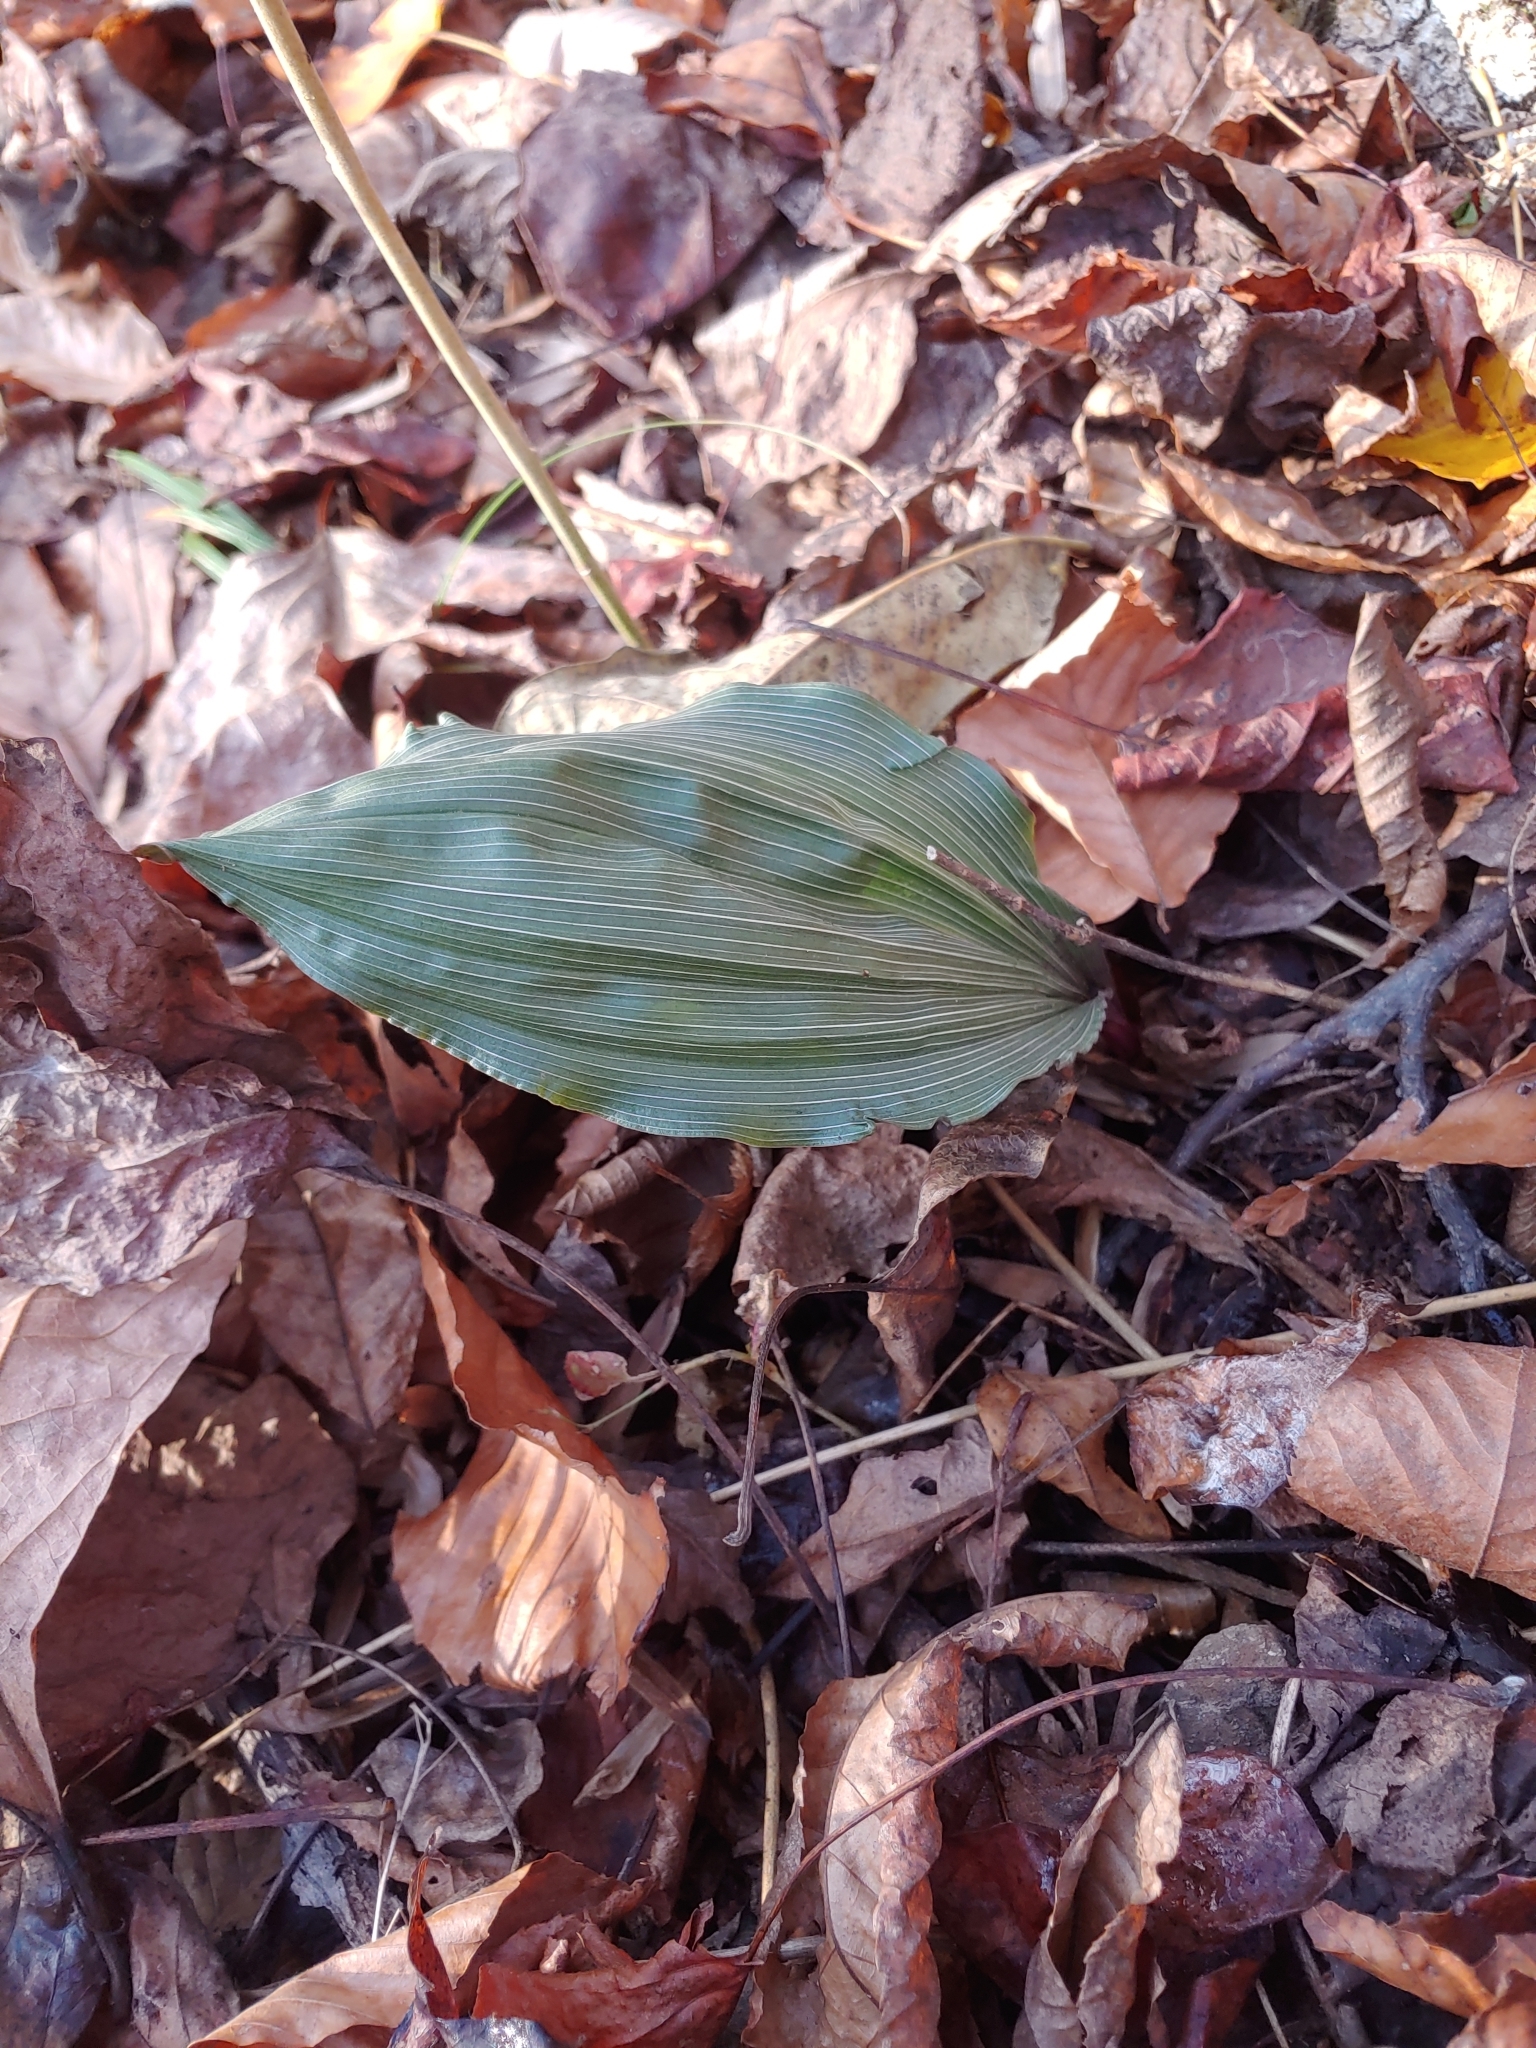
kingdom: Plantae
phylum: Tracheophyta
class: Liliopsida
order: Asparagales
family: Orchidaceae
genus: Aplectrum
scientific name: Aplectrum hyemale
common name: Adam-and-eve
